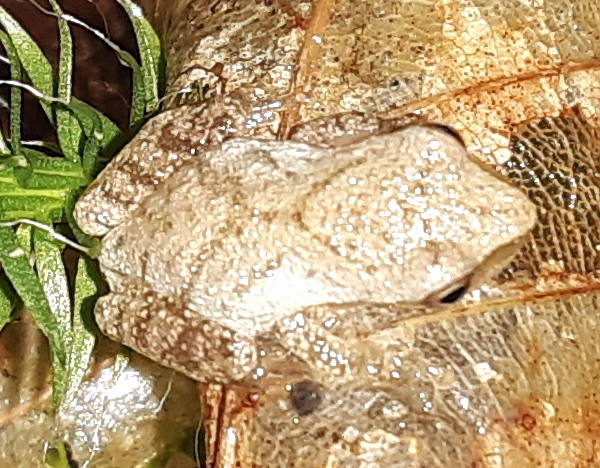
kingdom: Animalia
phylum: Chordata
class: Amphibia
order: Anura
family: Hylidae
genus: Pseudacris
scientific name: Pseudacris crucifer
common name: Spring peeper
